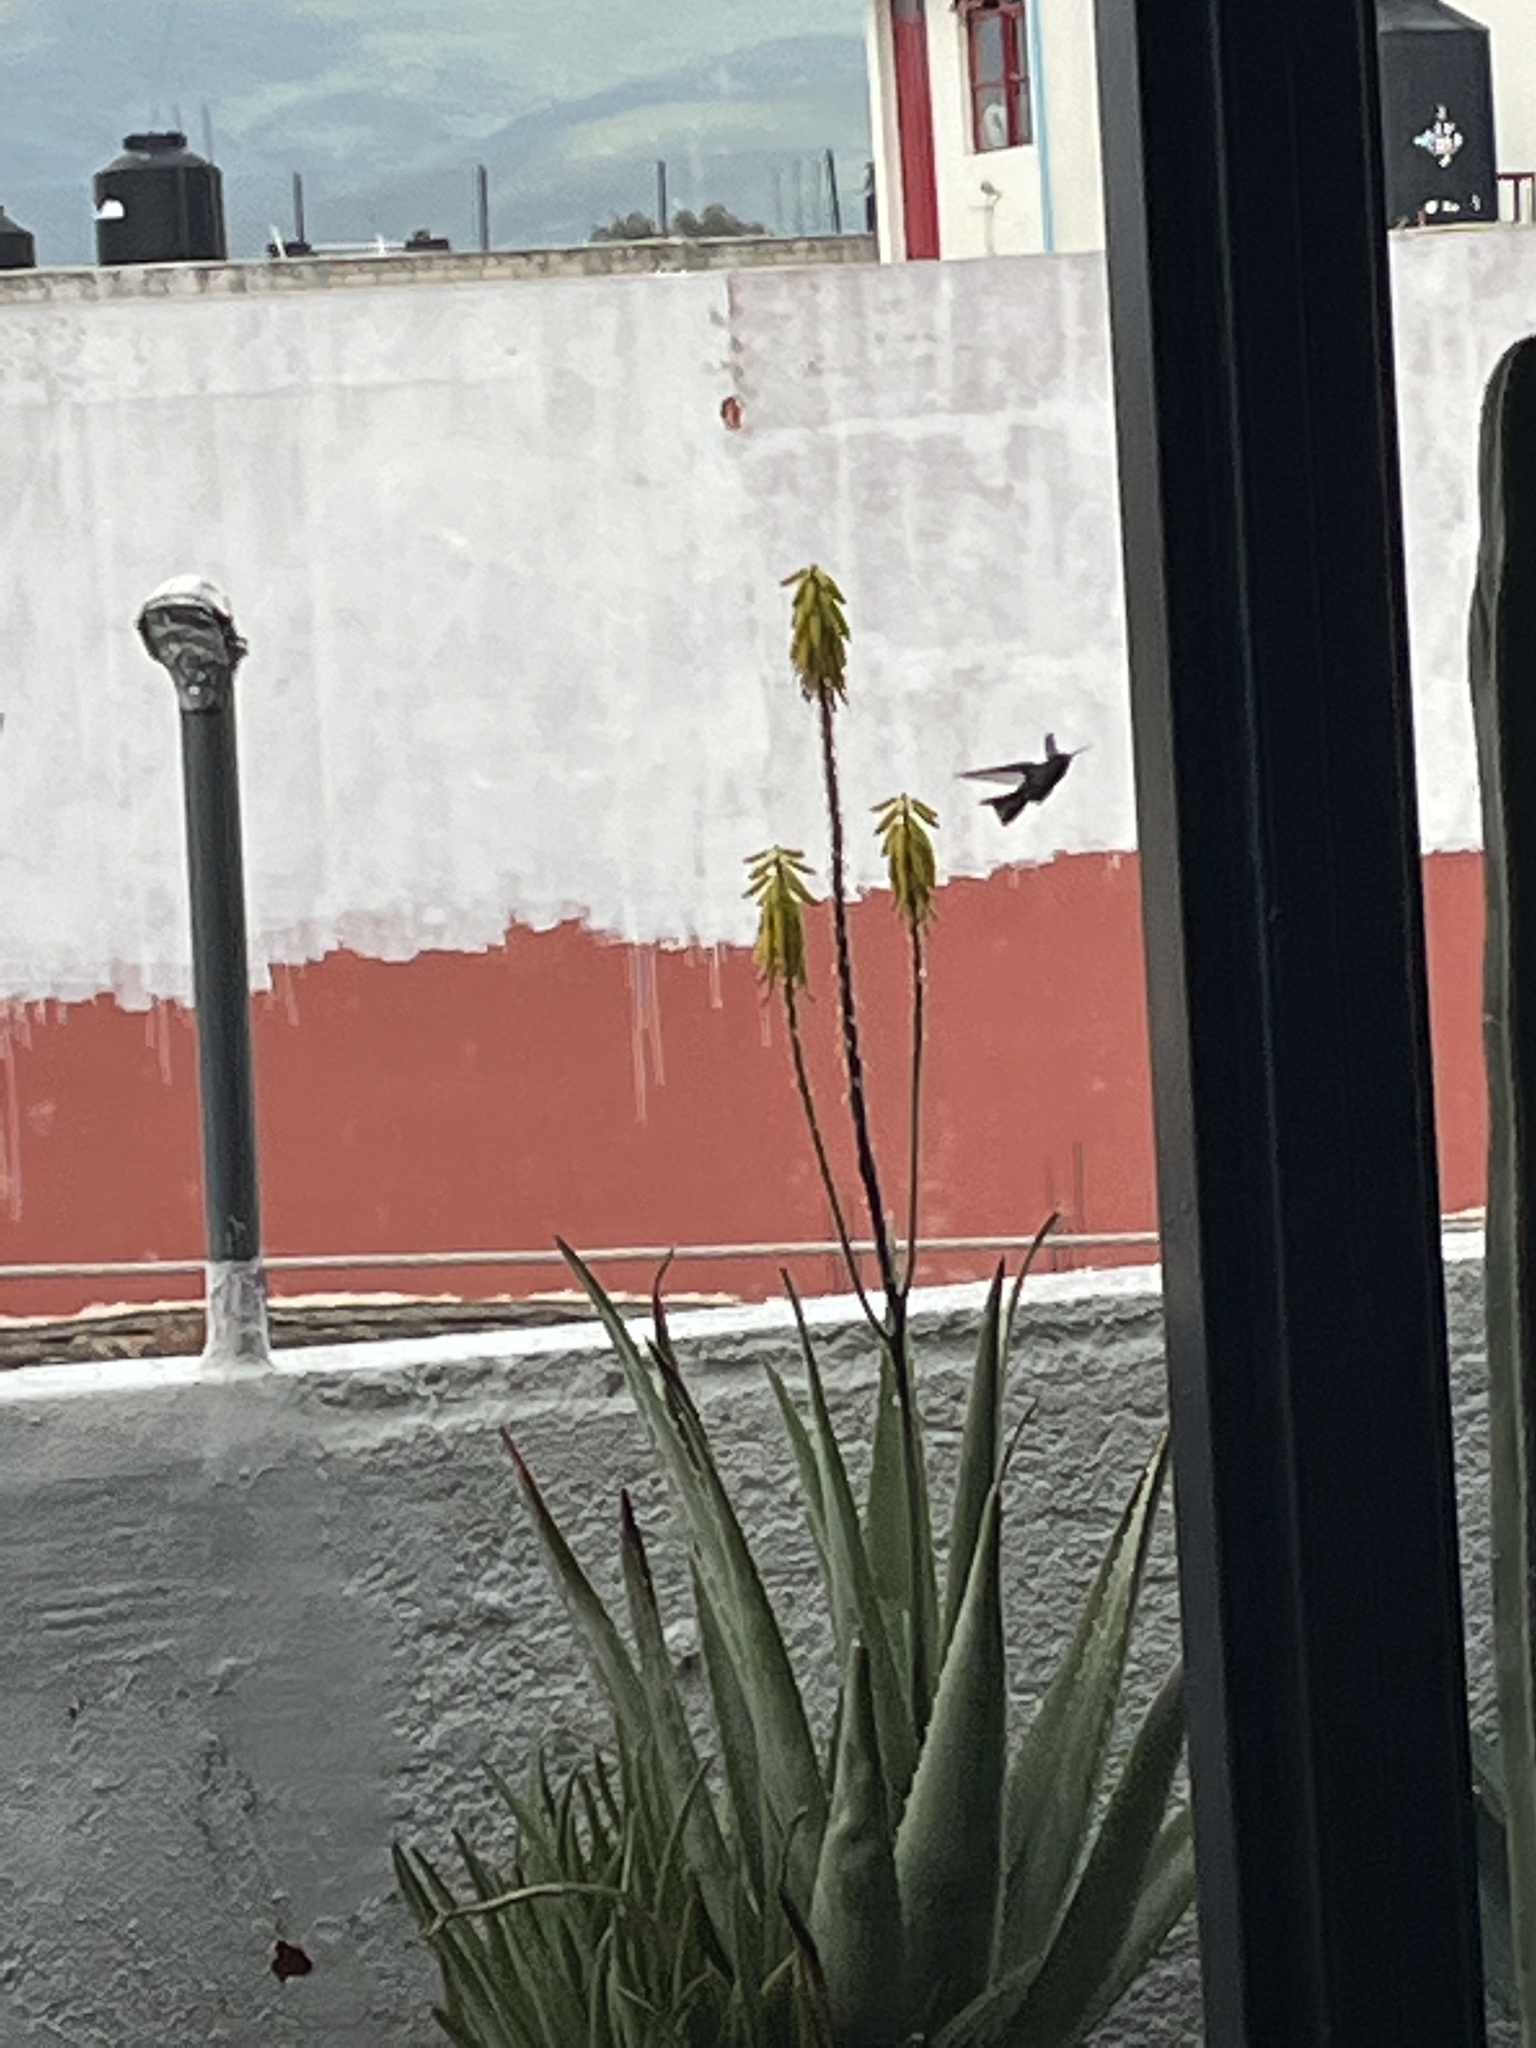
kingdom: Animalia
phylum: Chordata
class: Aves
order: Apodiformes
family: Trochilidae
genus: Phaeoptila
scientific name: Phaeoptila sordida
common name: Dusky hummingbird
